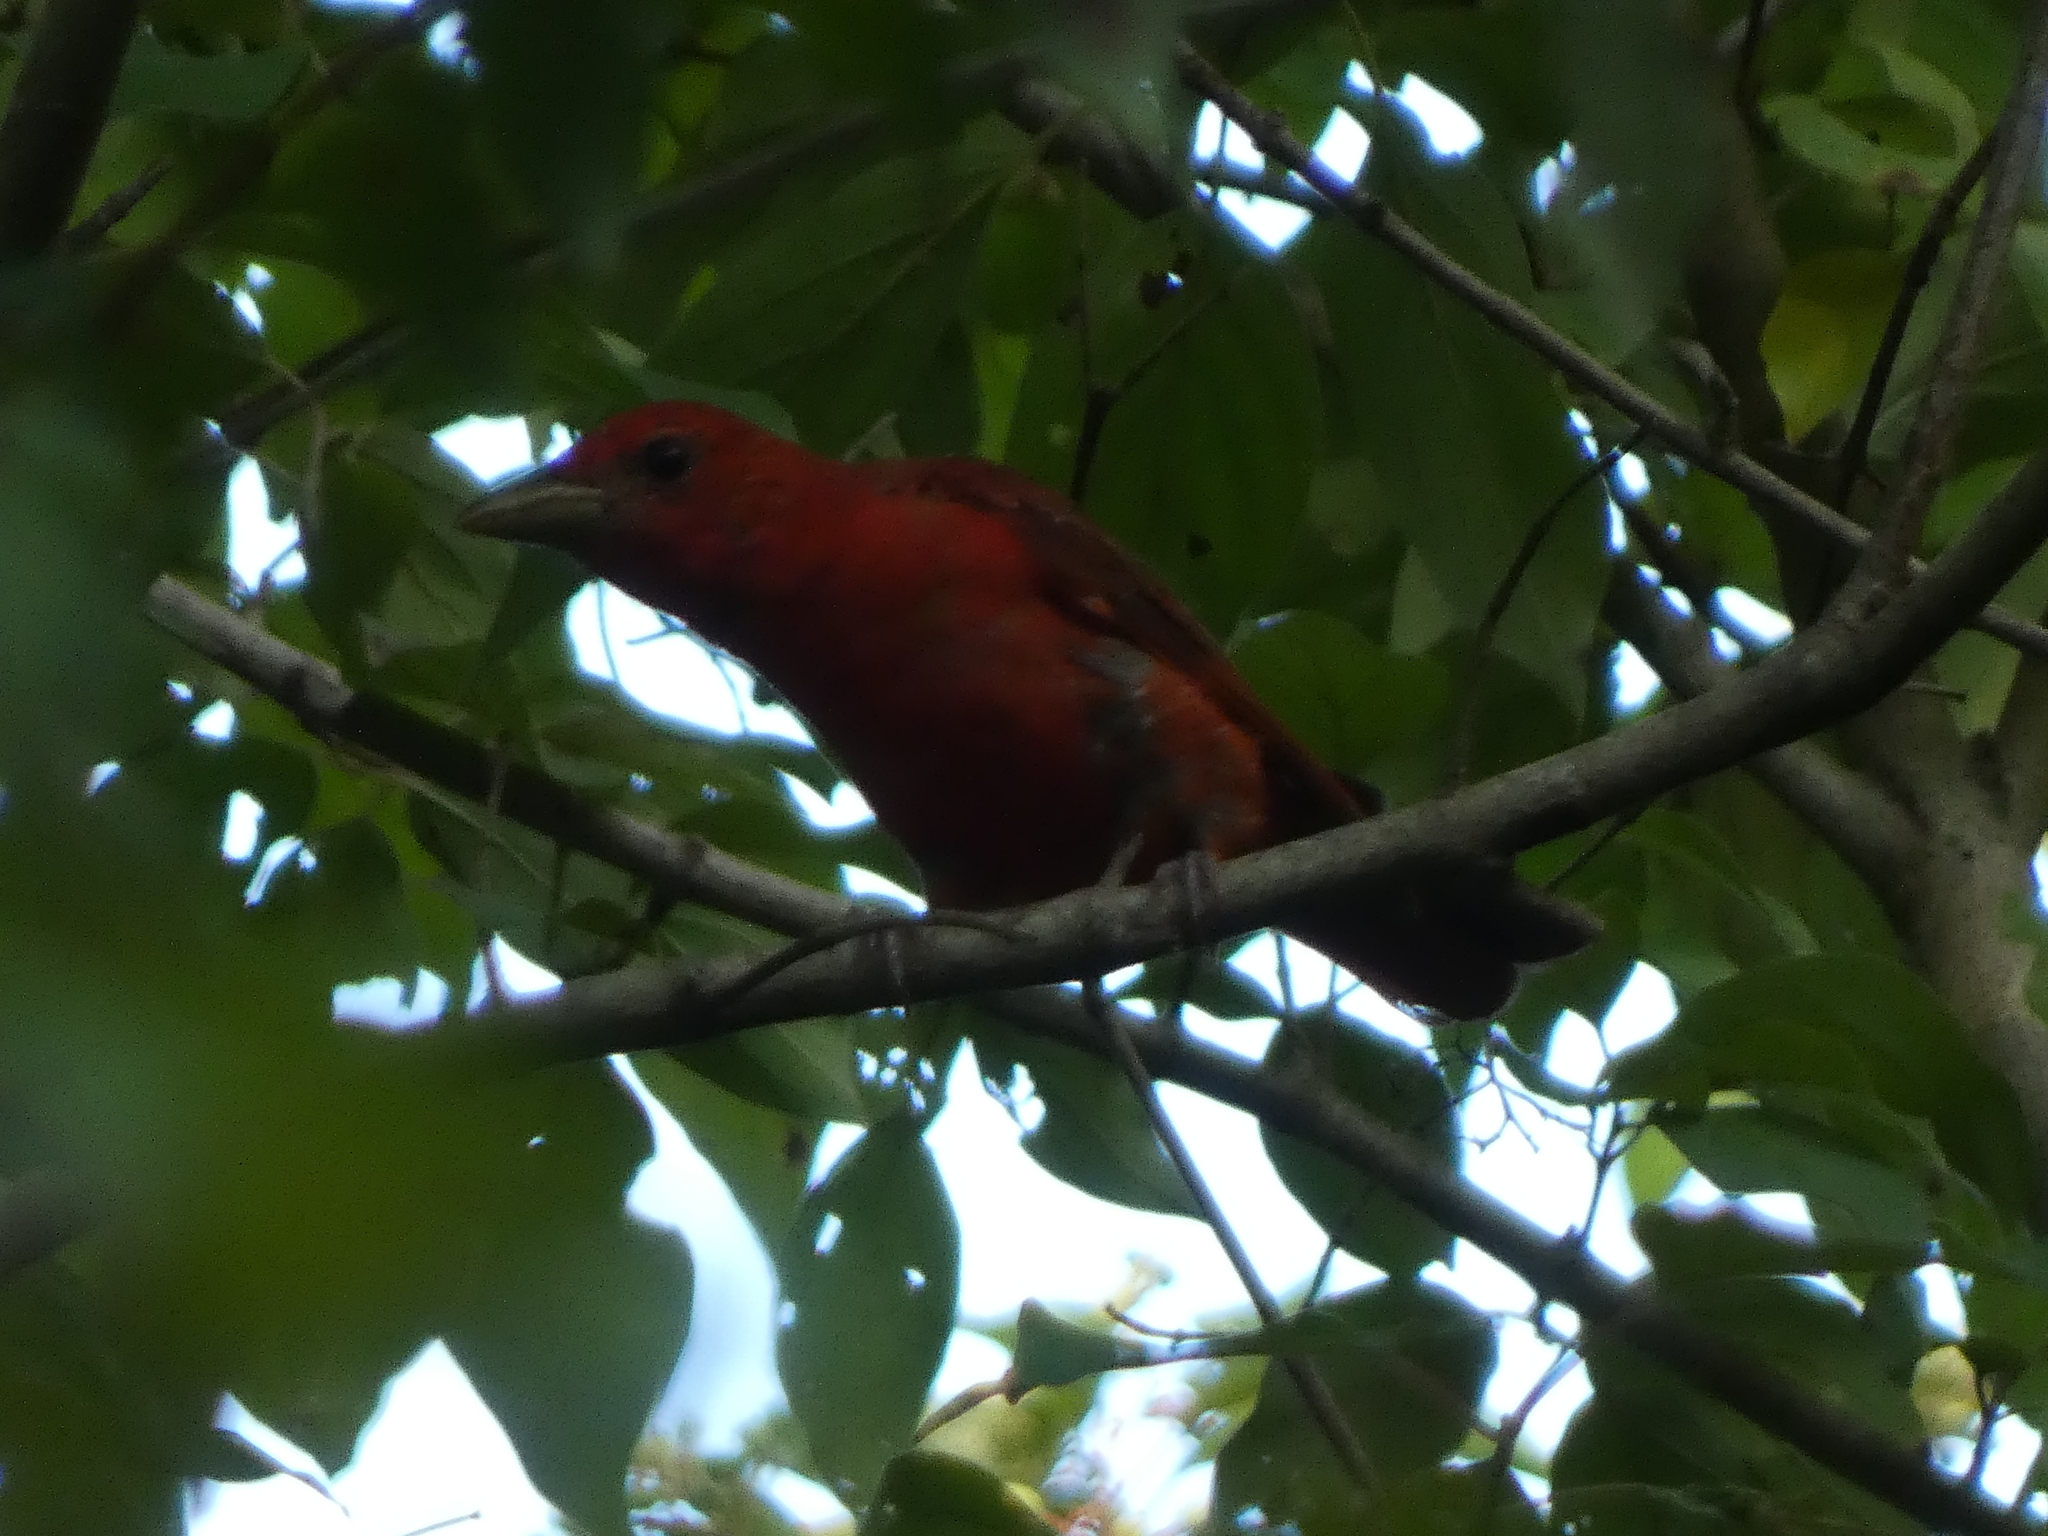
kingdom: Animalia
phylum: Chordata
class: Aves
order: Passeriformes
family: Cardinalidae
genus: Piranga
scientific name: Piranga rubra
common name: Summer tanager
